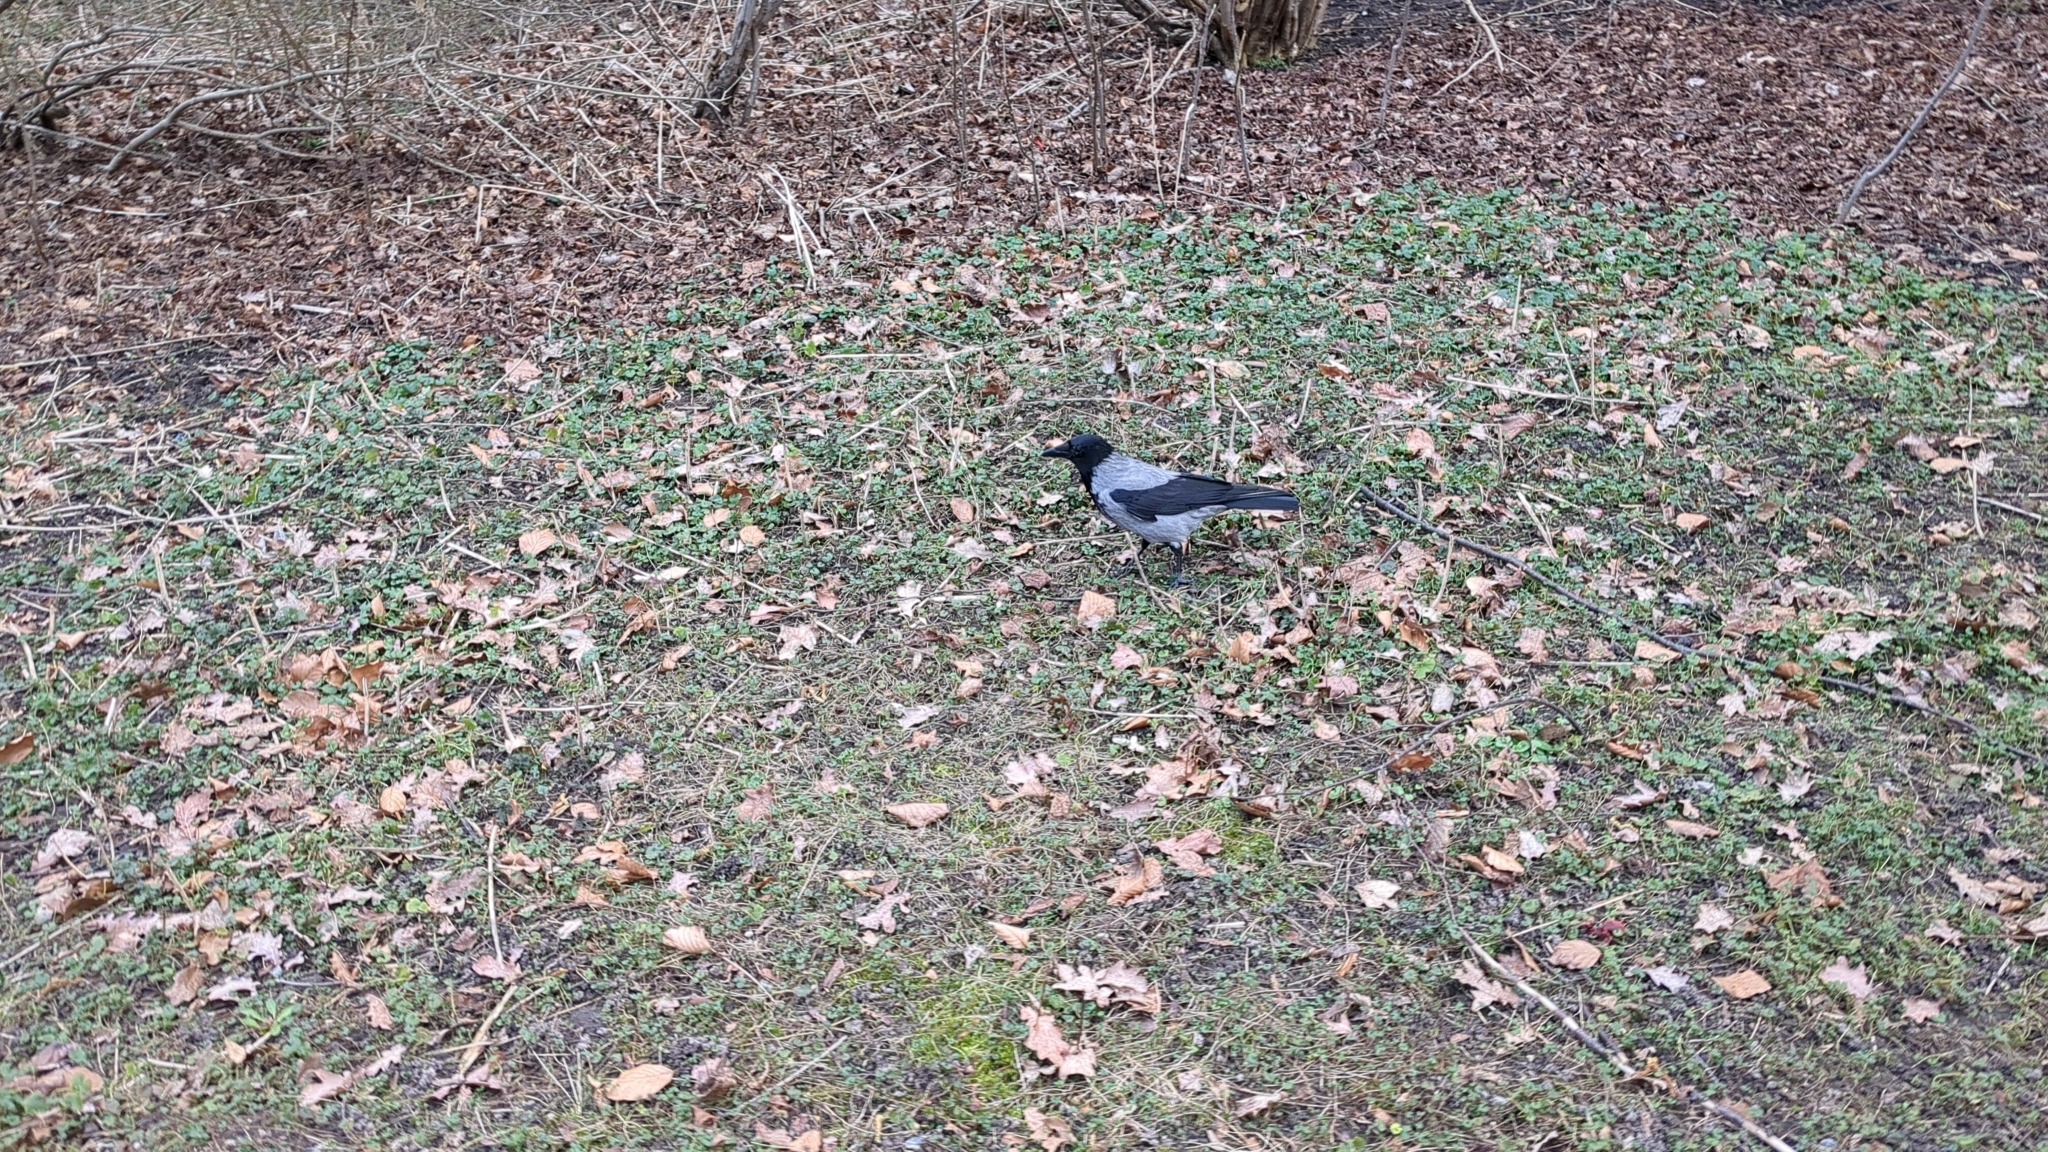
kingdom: Animalia
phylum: Chordata
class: Aves
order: Passeriformes
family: Corvidae
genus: Corvus
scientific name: Corvus cornix
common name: Hooded crow
